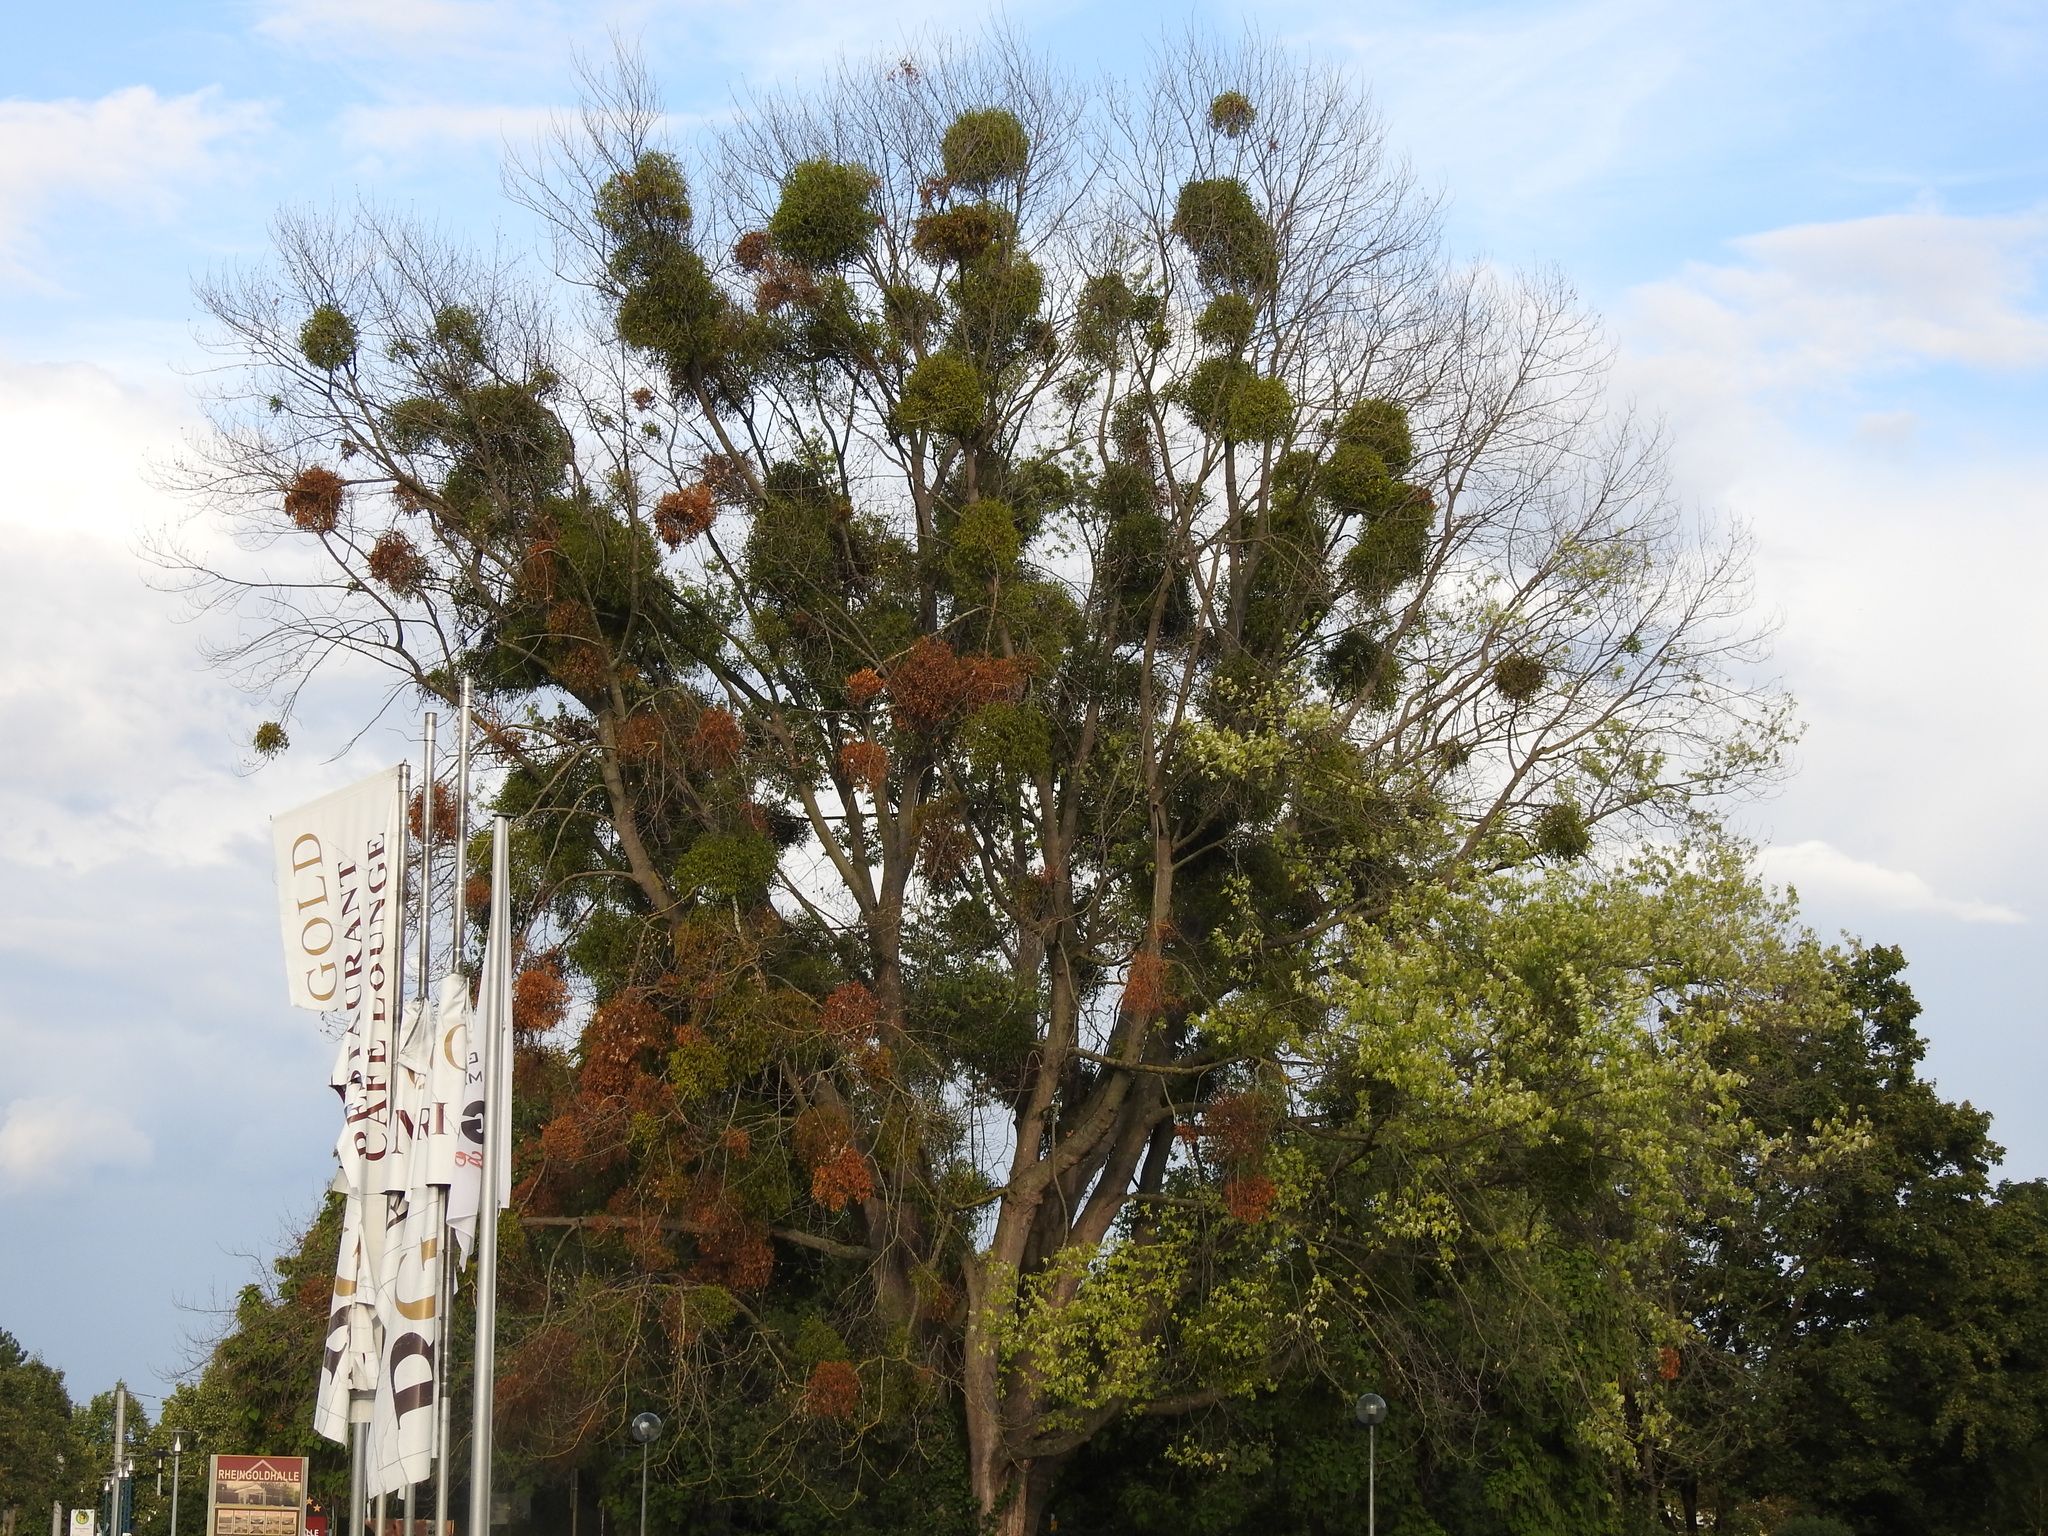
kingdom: Plantae
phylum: Tracheophyta
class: Magnoliopsida
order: Santalales
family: Viscaceae
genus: Viscum
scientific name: Viscum album
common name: Mistletoe
